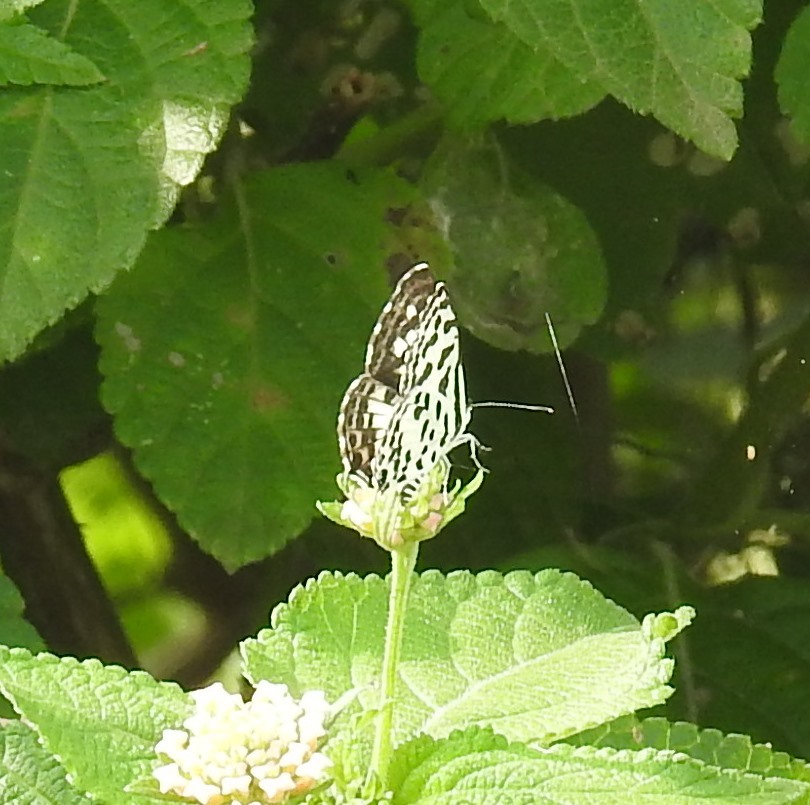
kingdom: Animalia
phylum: Arthropoda
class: Insecta
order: Lepidoptera
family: Lycaenidae
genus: Castalius
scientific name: Castalius rosimon
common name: Common pierrot
